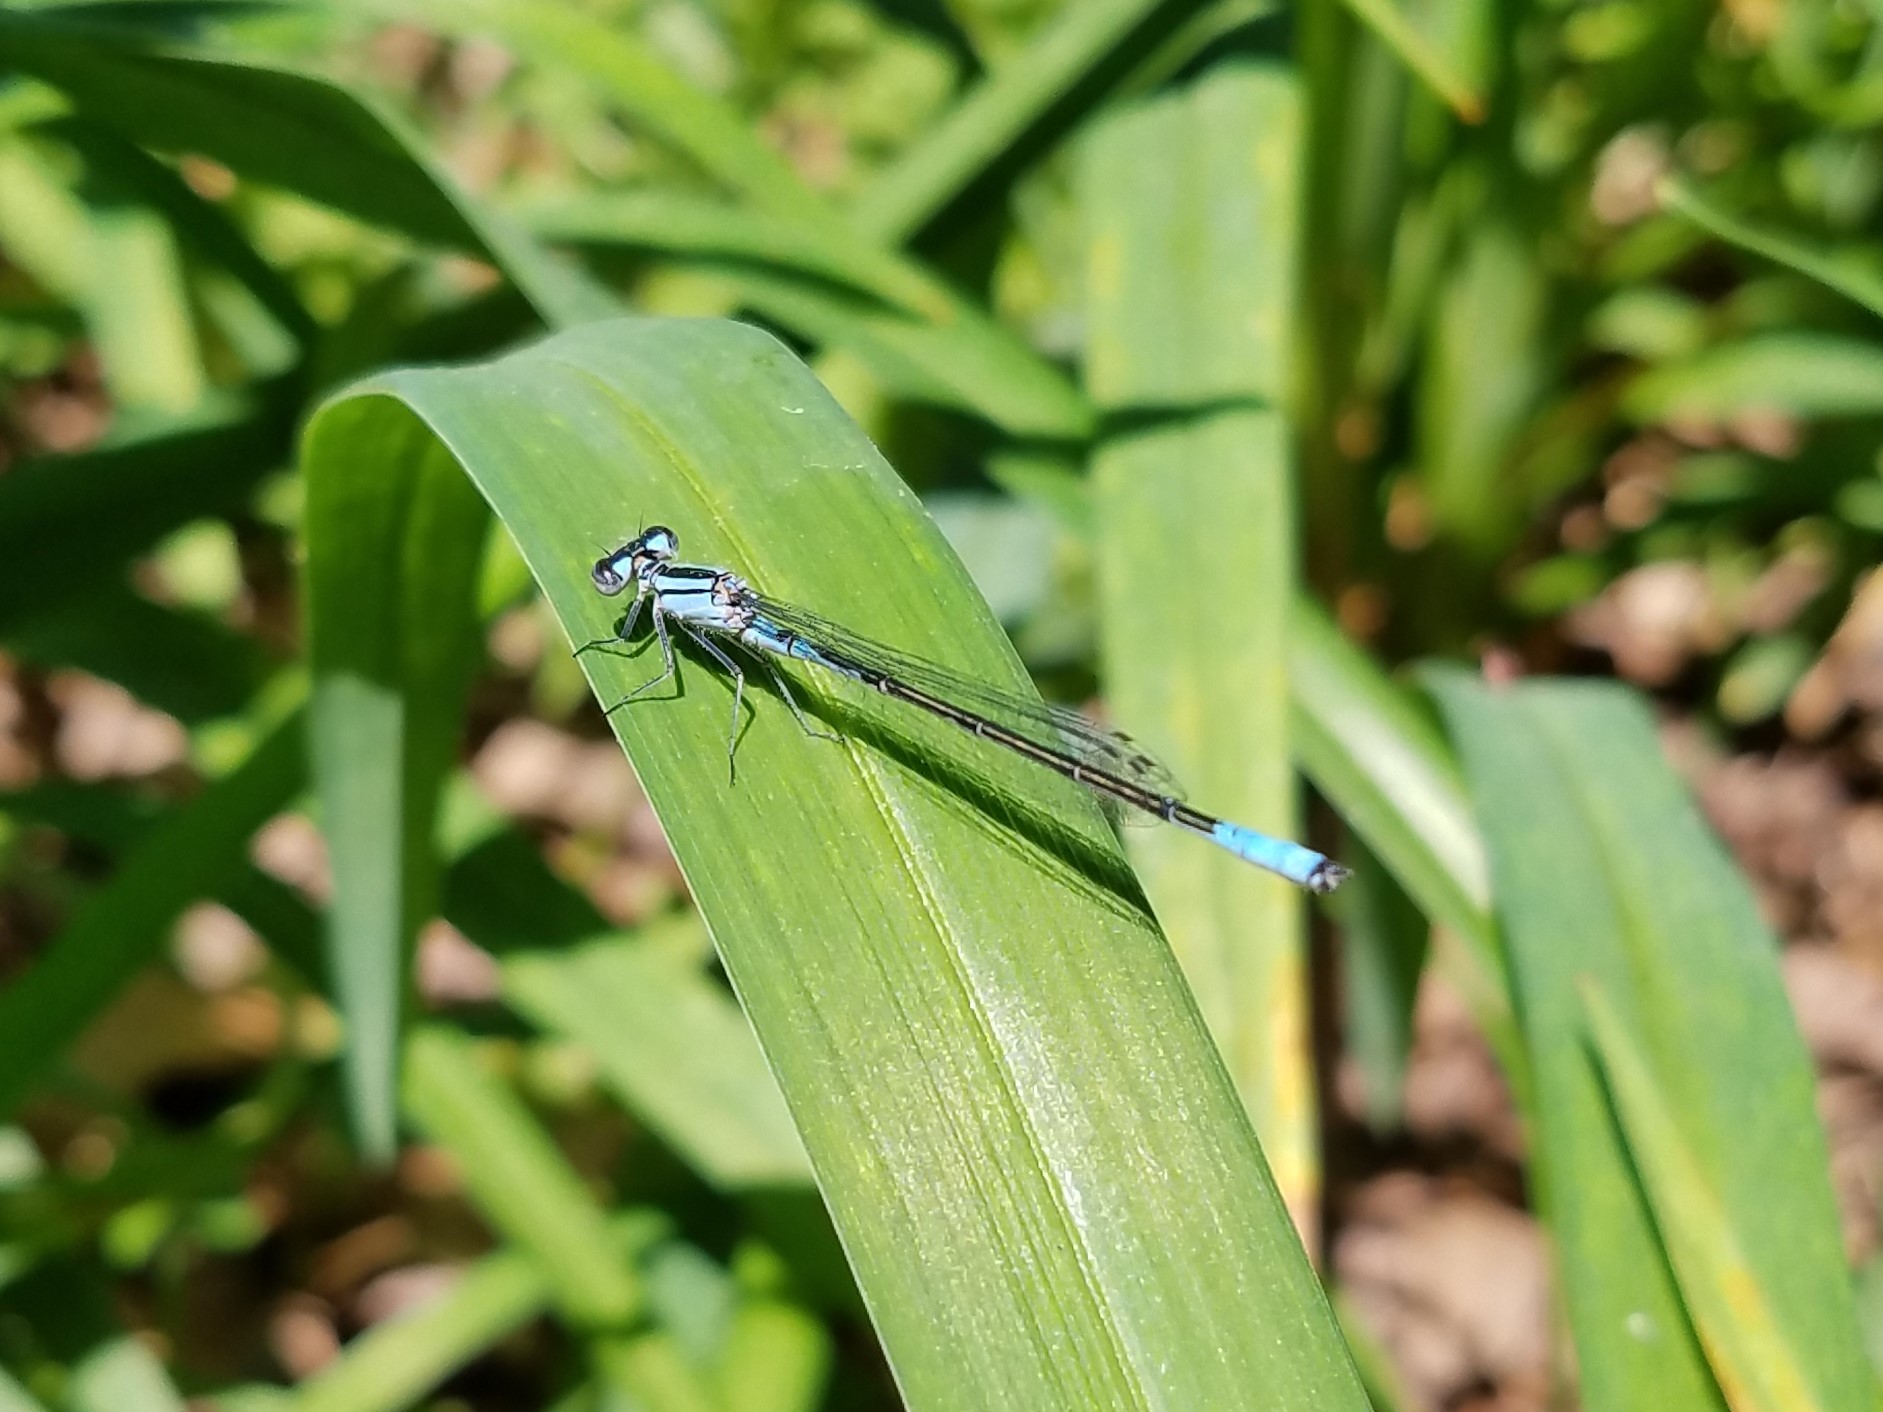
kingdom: Animalia
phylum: Arthropoda
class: Insecta
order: Odonata
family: Coenagrionidae
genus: Enallagma
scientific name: Enallagma aspersum
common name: Azure bluet
